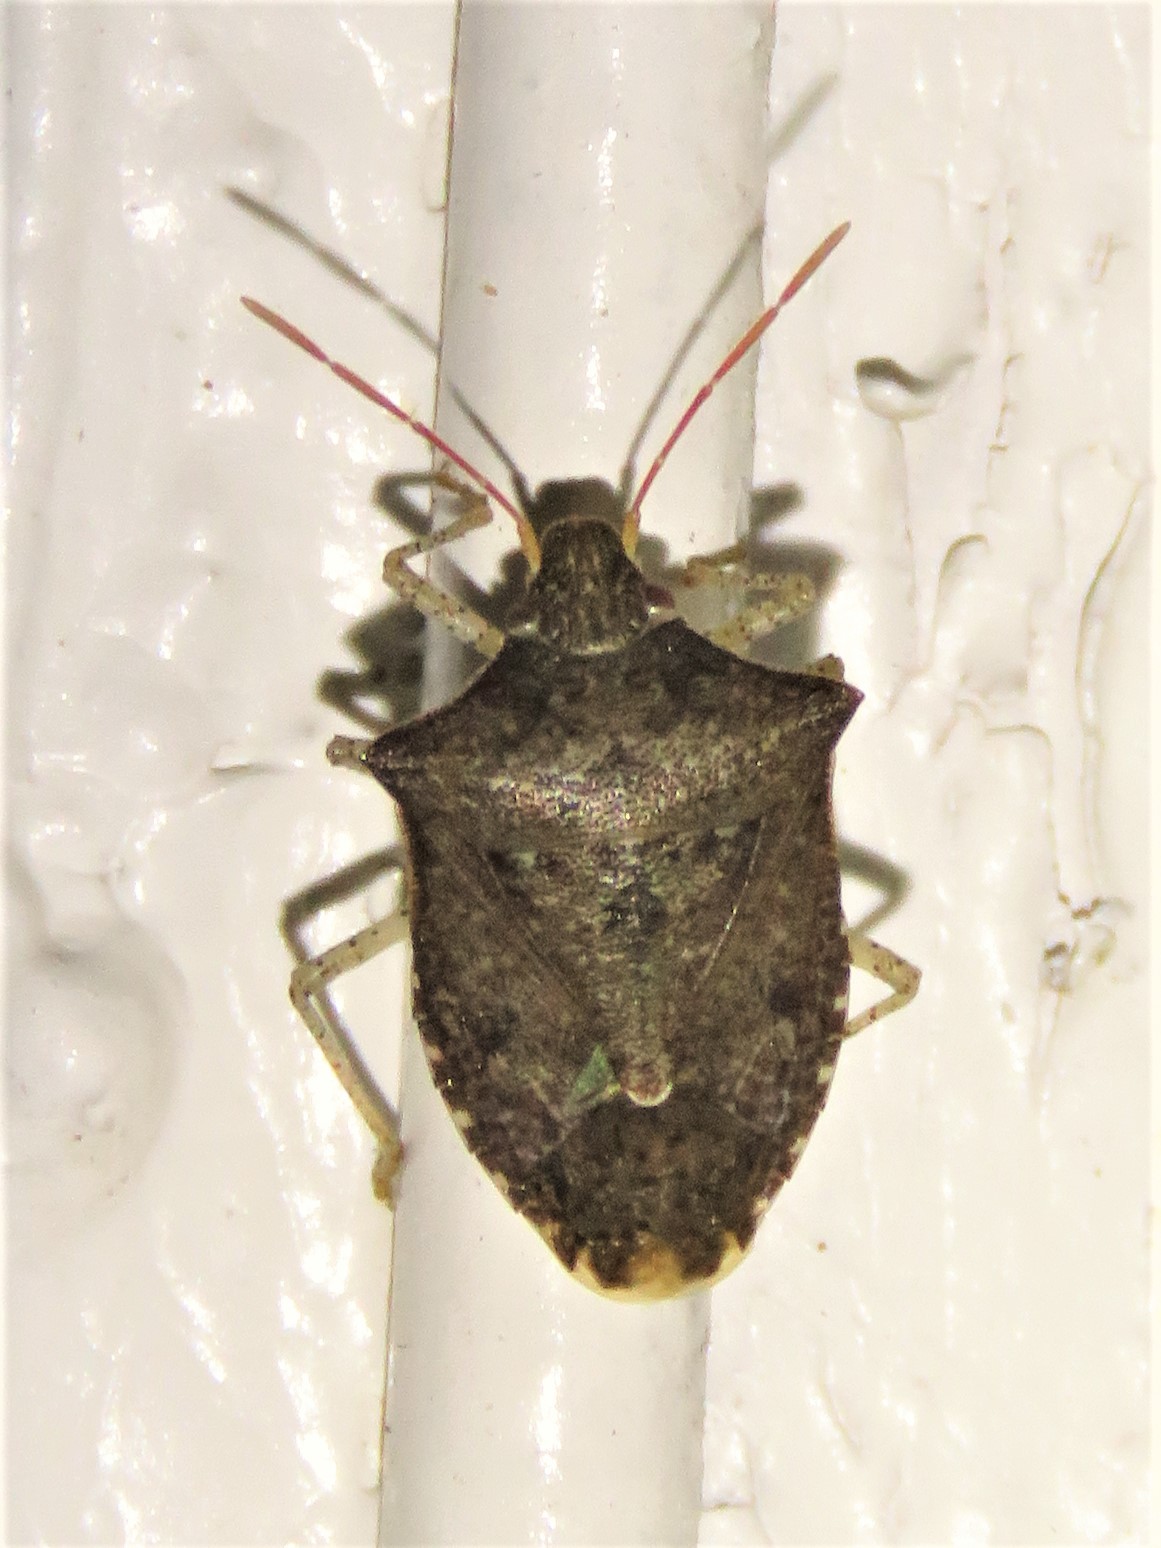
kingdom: Animalia
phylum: Arthropoda
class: Insecta
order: Hemiptera
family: Pentatomidae
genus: Euschistus
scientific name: Euschistus tristigmus
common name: Dusky stink bug
